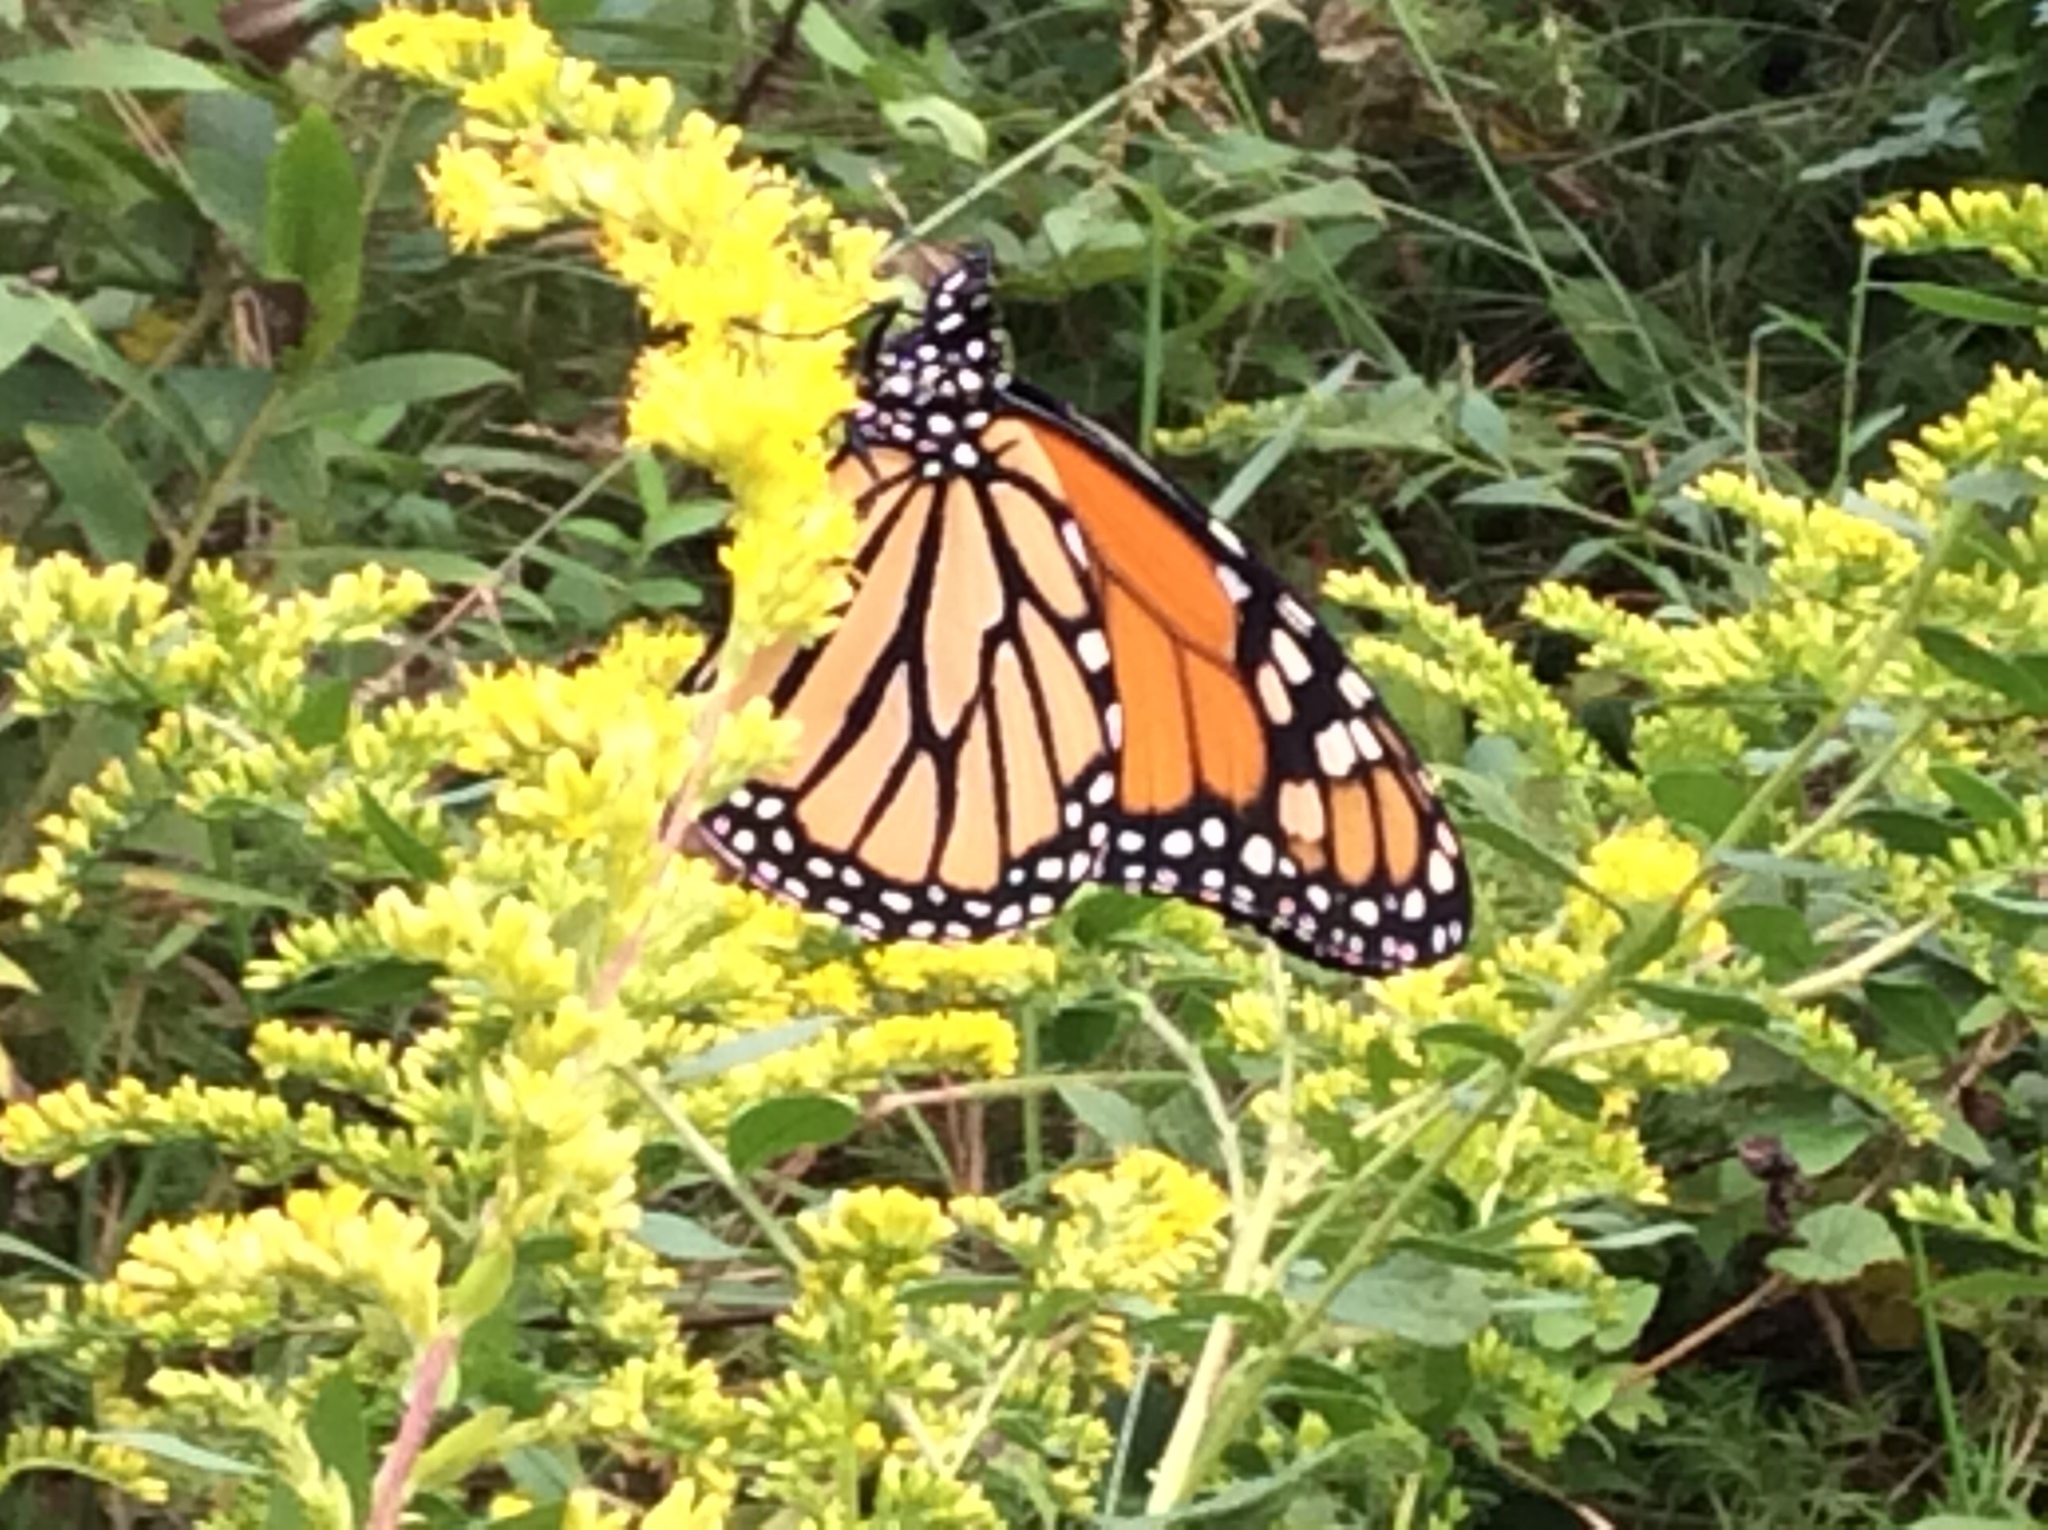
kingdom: Animalia
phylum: Arthropoda
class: Insecta
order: Lepidoptera
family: Nymphalidae
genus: Danaus
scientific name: Danaus plexippus
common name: Monarch
